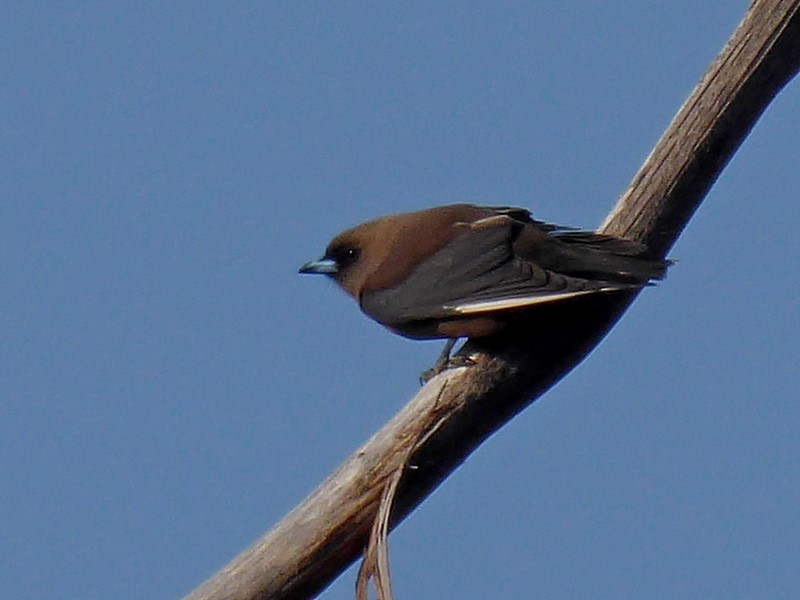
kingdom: Animalia
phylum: Chordata
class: Aves
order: Passeriformes
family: Artamidae
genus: Artamus
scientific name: Artamus cyanopterus
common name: Dusky woodswallow
